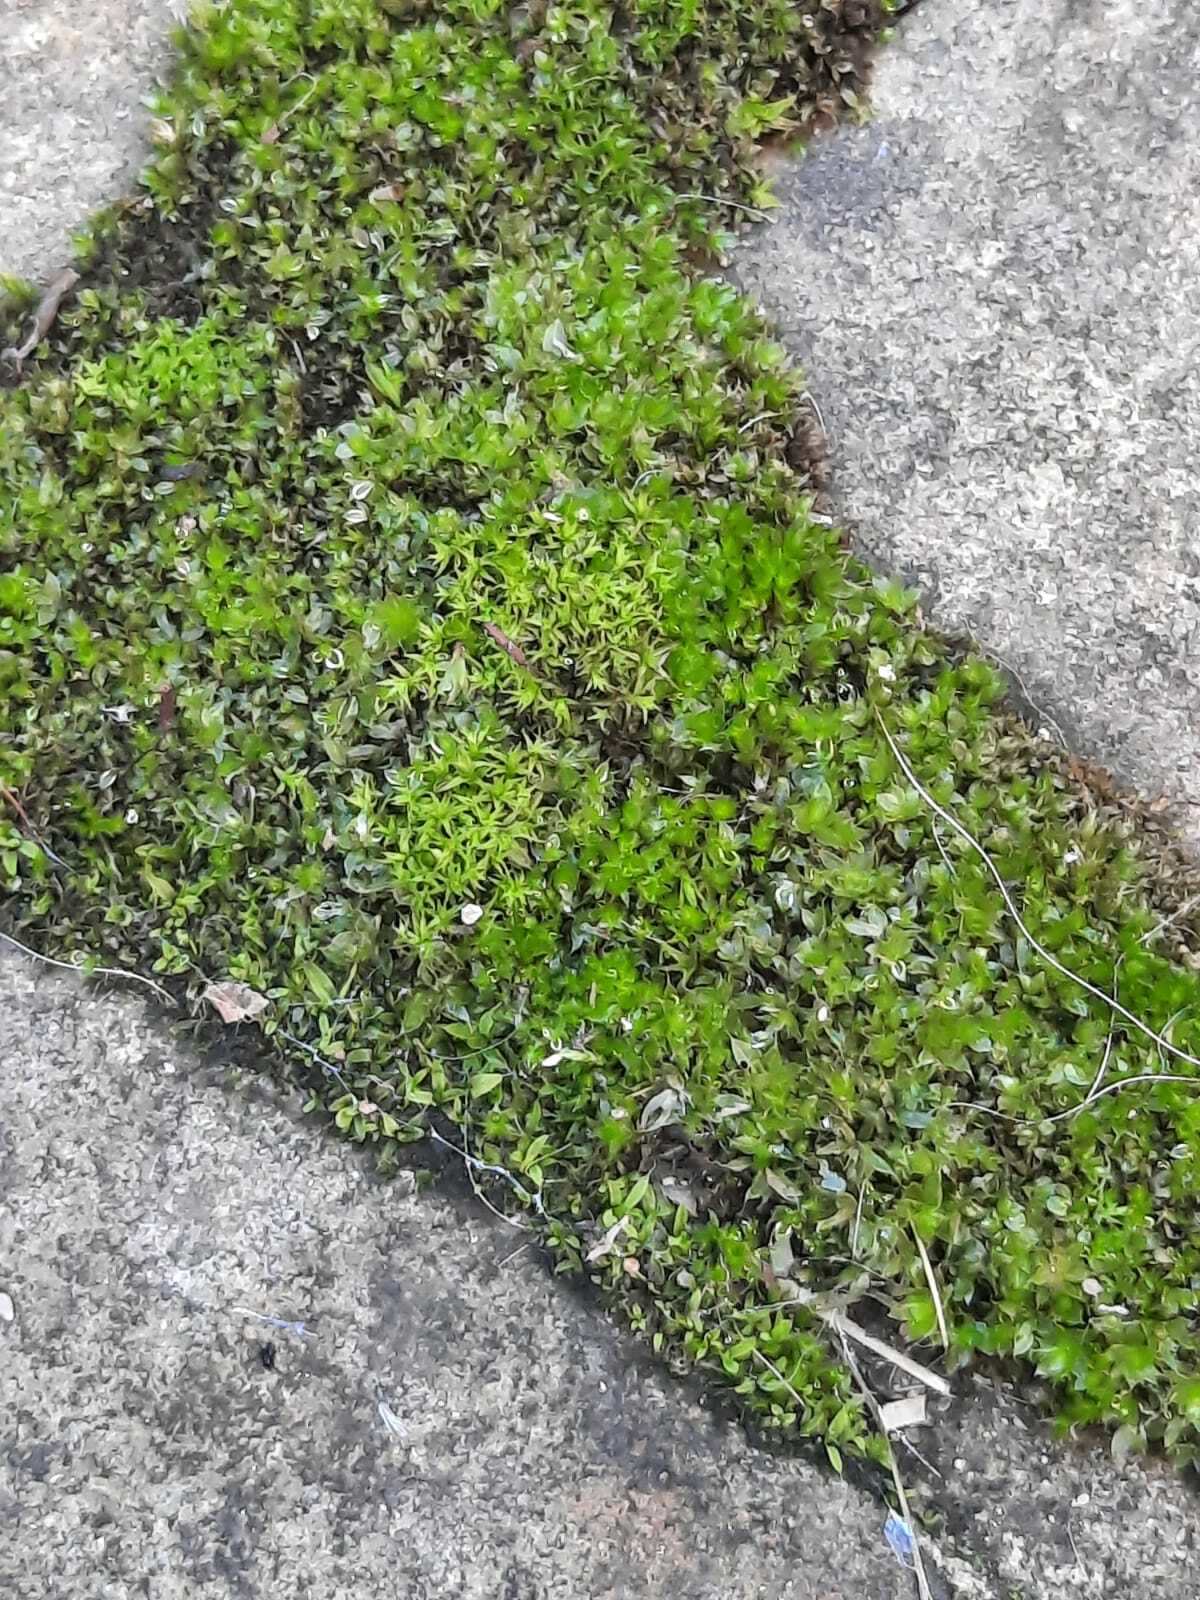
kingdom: Plantae
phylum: Bryophyta
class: Bryopsida
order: Bryales
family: Bryaceae
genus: Rosulabryum
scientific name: Rosulabryum capillare
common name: Capillary thread-moss
